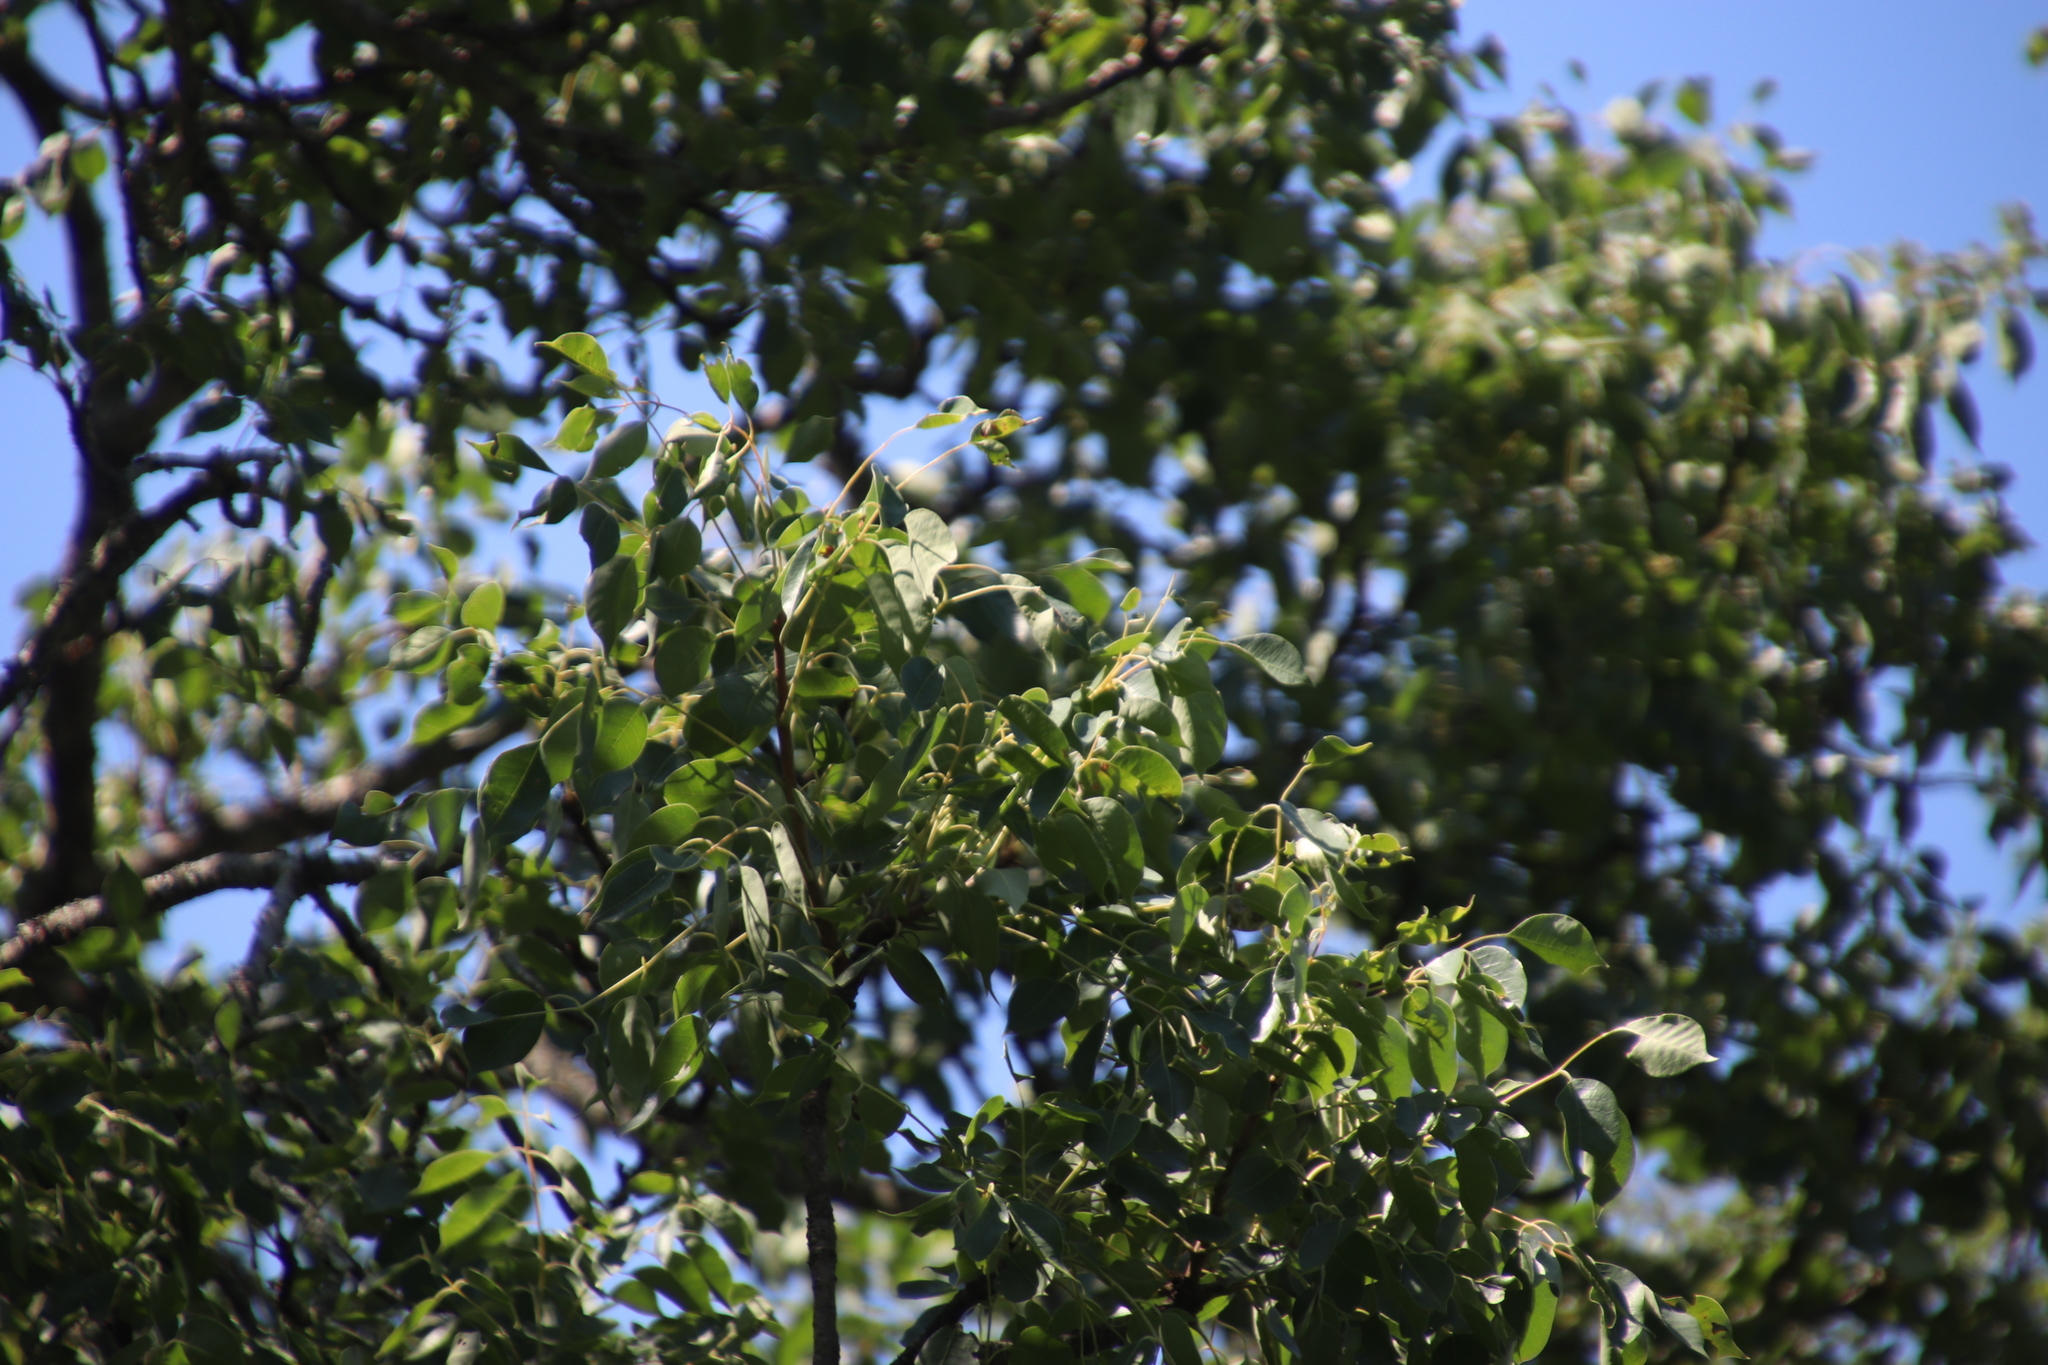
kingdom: Plantae
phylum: Tracheophyta
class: Magnoliopsida
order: Sapindales
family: Anacardiaceae
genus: Sclerocarya
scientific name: Sclerocarya birrea
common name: Marula
